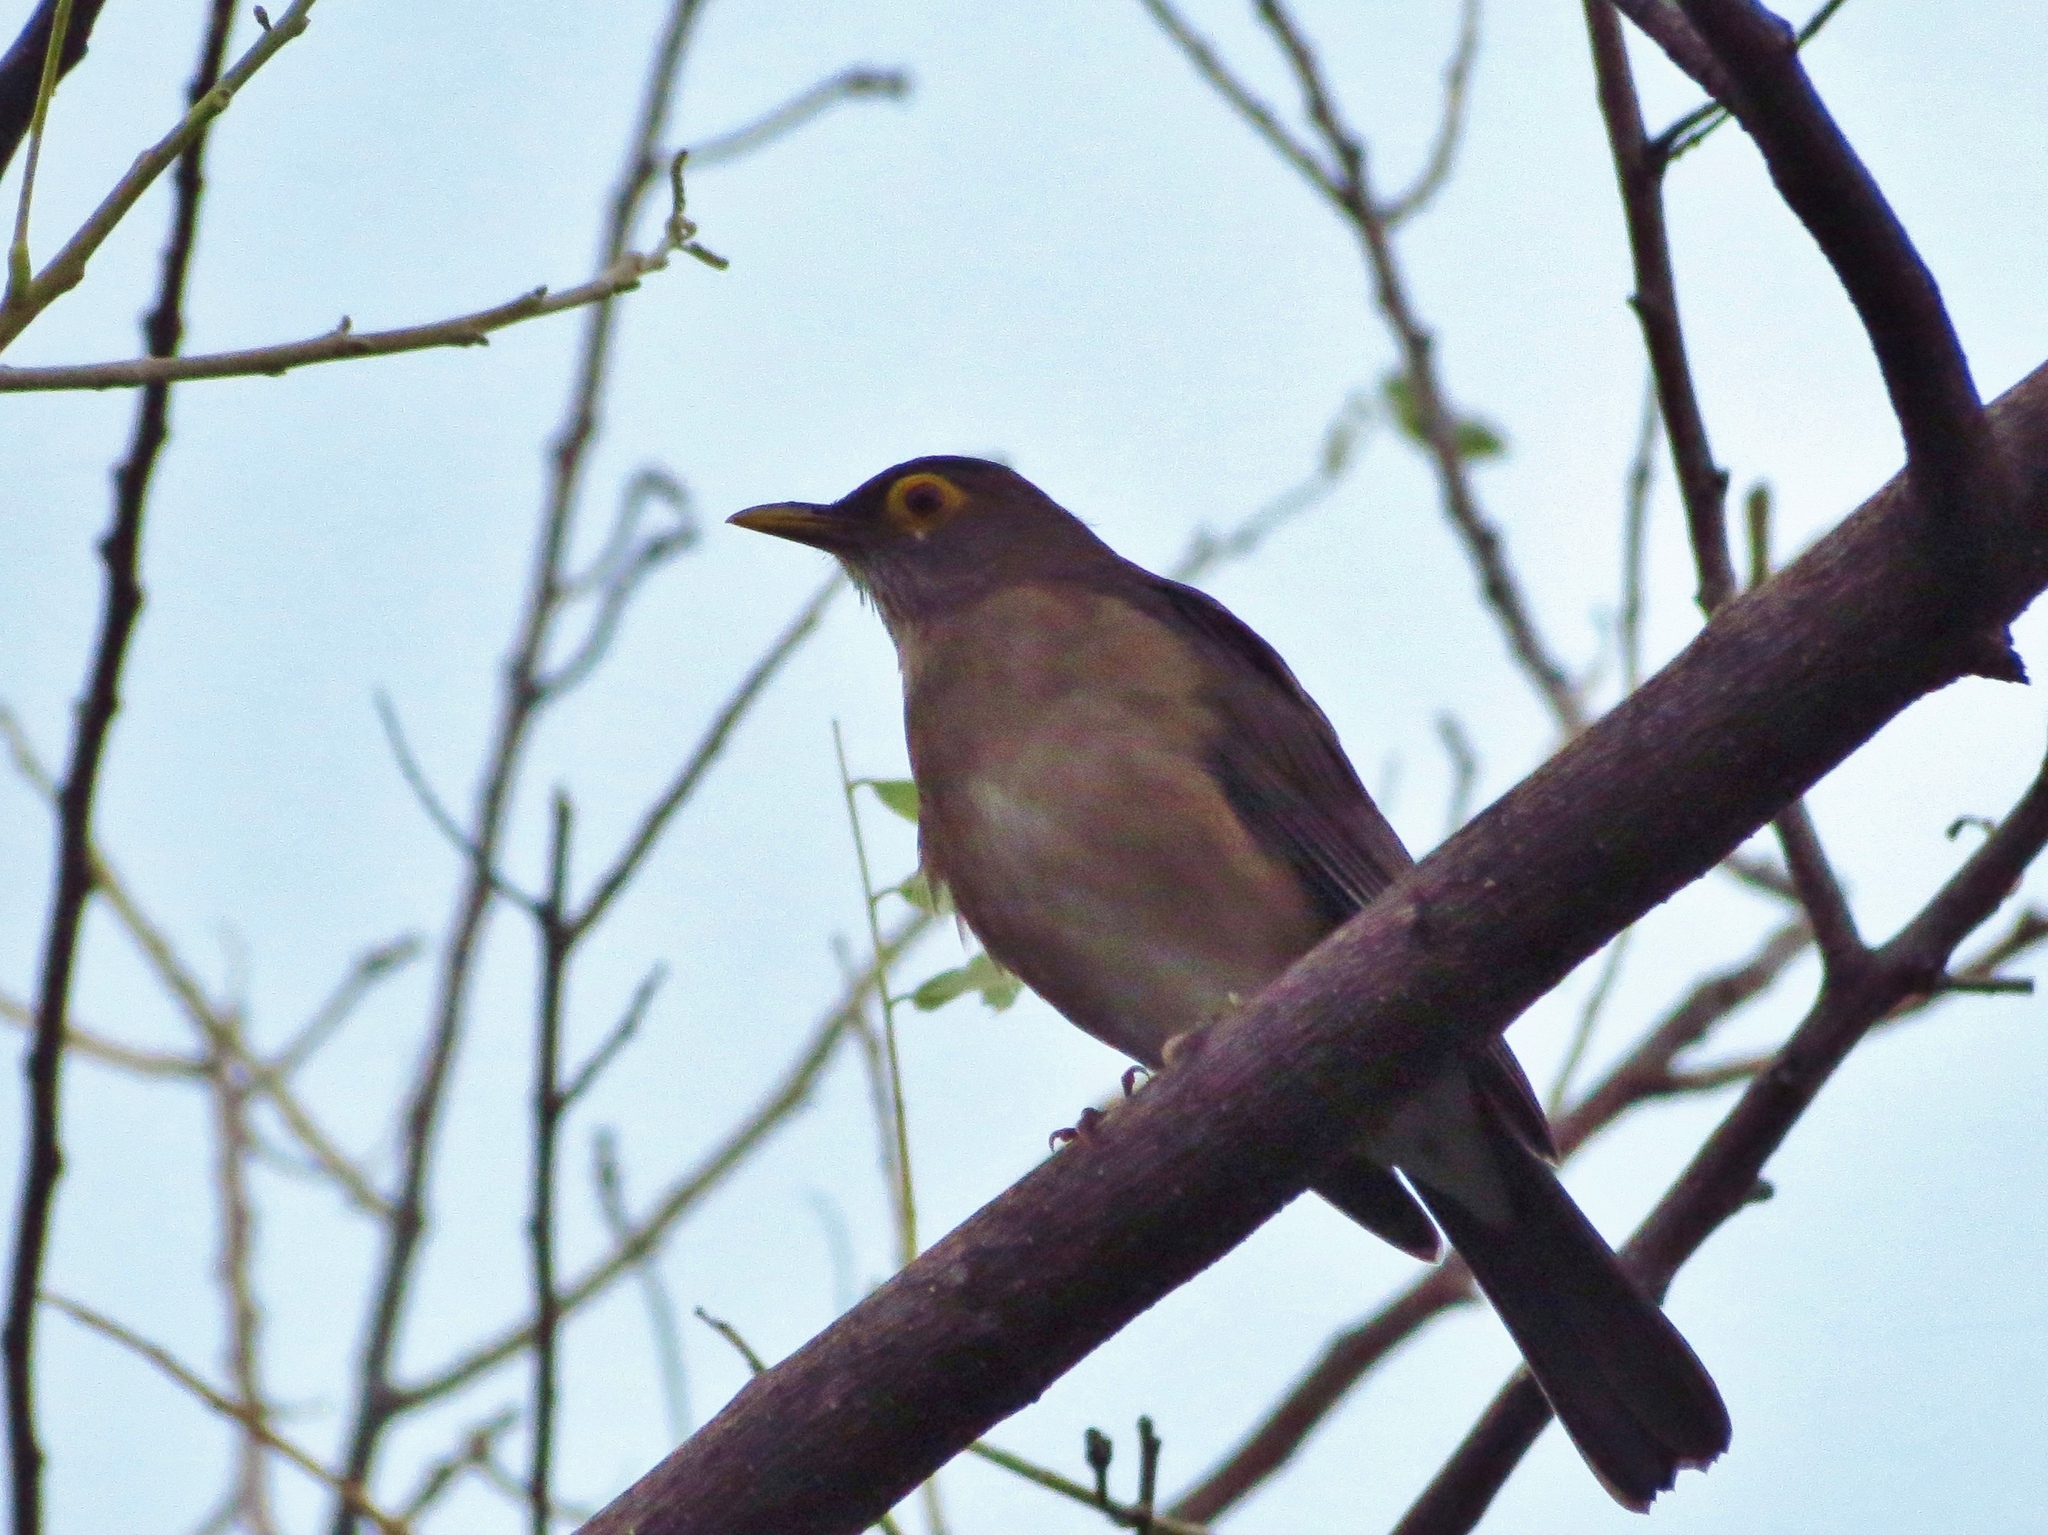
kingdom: Animalia
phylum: Chordata
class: Aves
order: Passeriformes
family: Turdidae
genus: Turdus
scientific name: Turdus nudigenis
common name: Spectacled thrush
